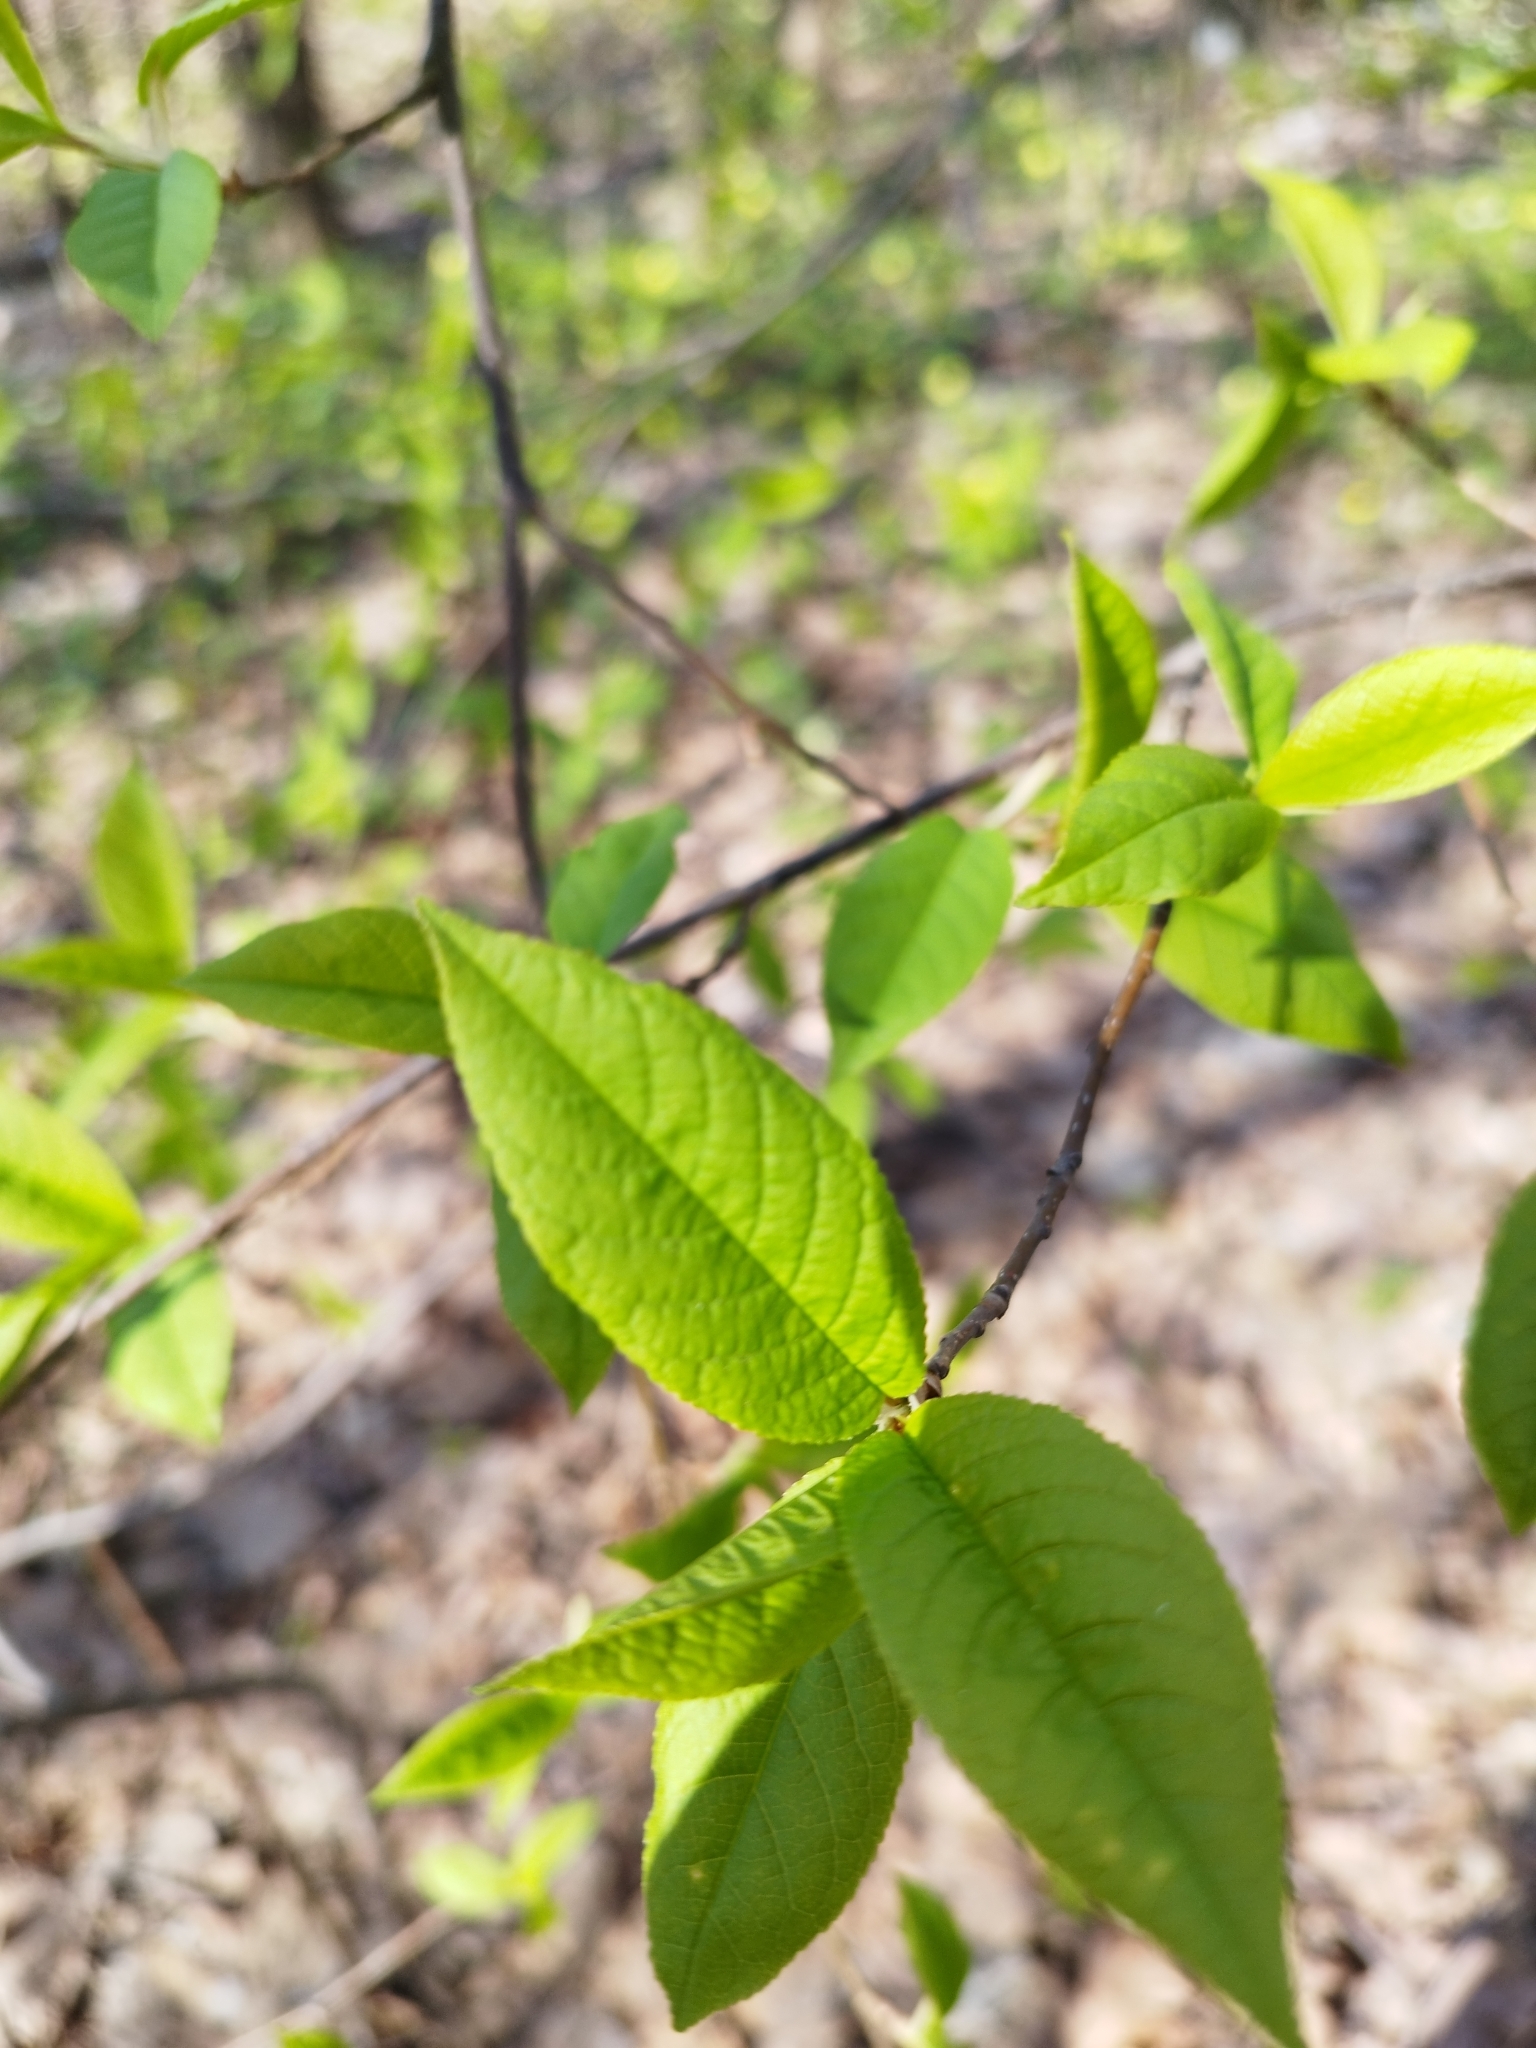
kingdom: Plantae
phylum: Tracheophyta
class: Magnoliopsida
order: Rosales
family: Rosaceae
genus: Prunus
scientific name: Prunus padus
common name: Bird cherry
